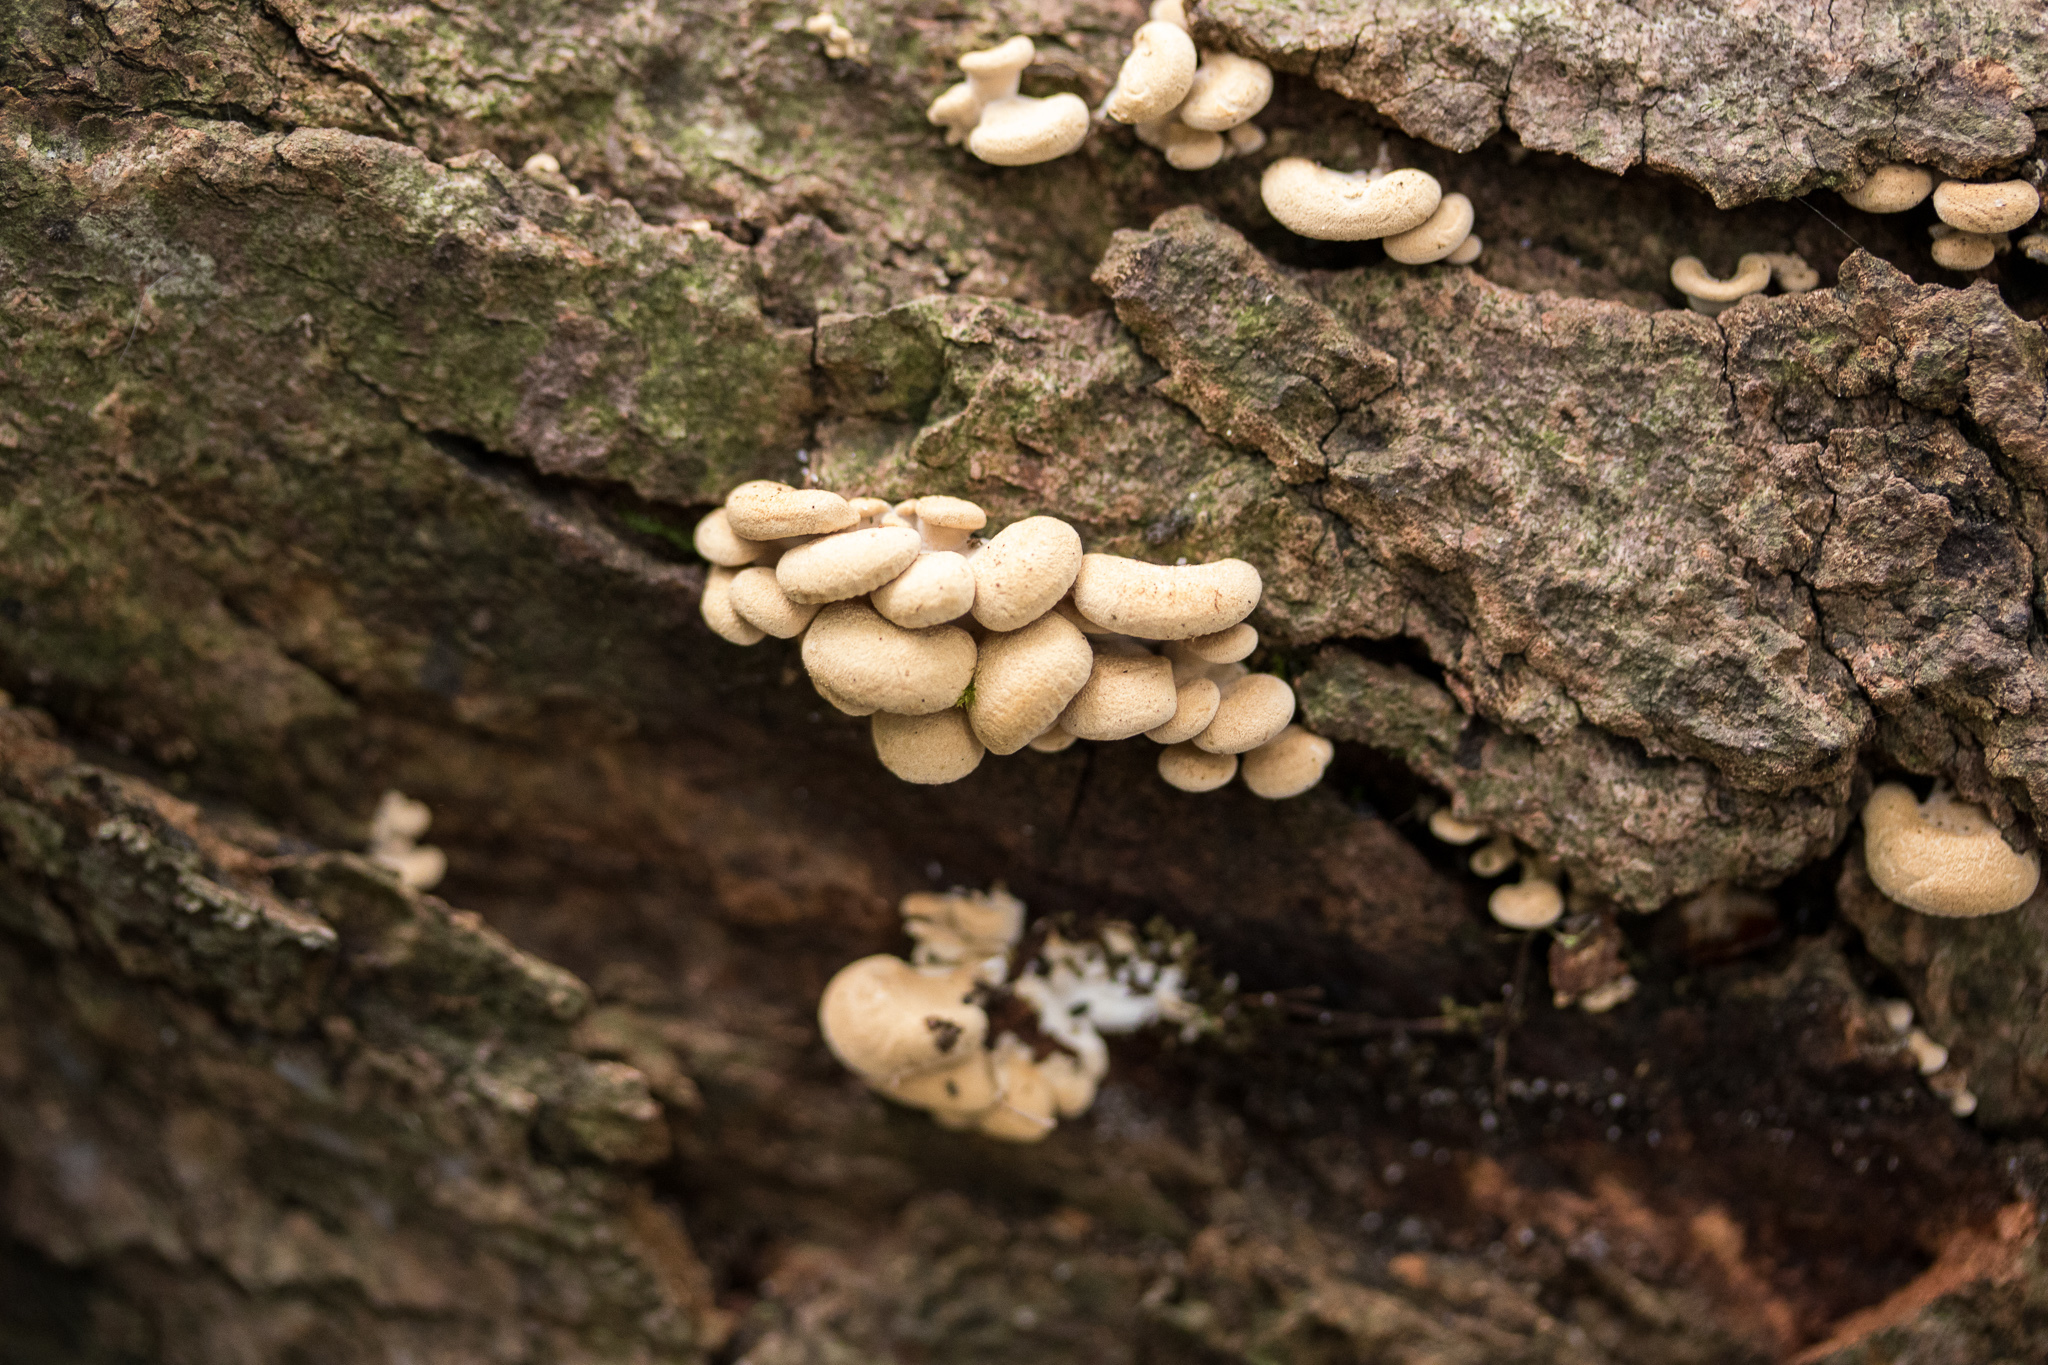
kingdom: Fungi
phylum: Basidiomycota
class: Agaricomycetes
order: Agaricales
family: Mycenaceae
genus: Panellus
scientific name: Panellus stipticus
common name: Bitter oysterling
